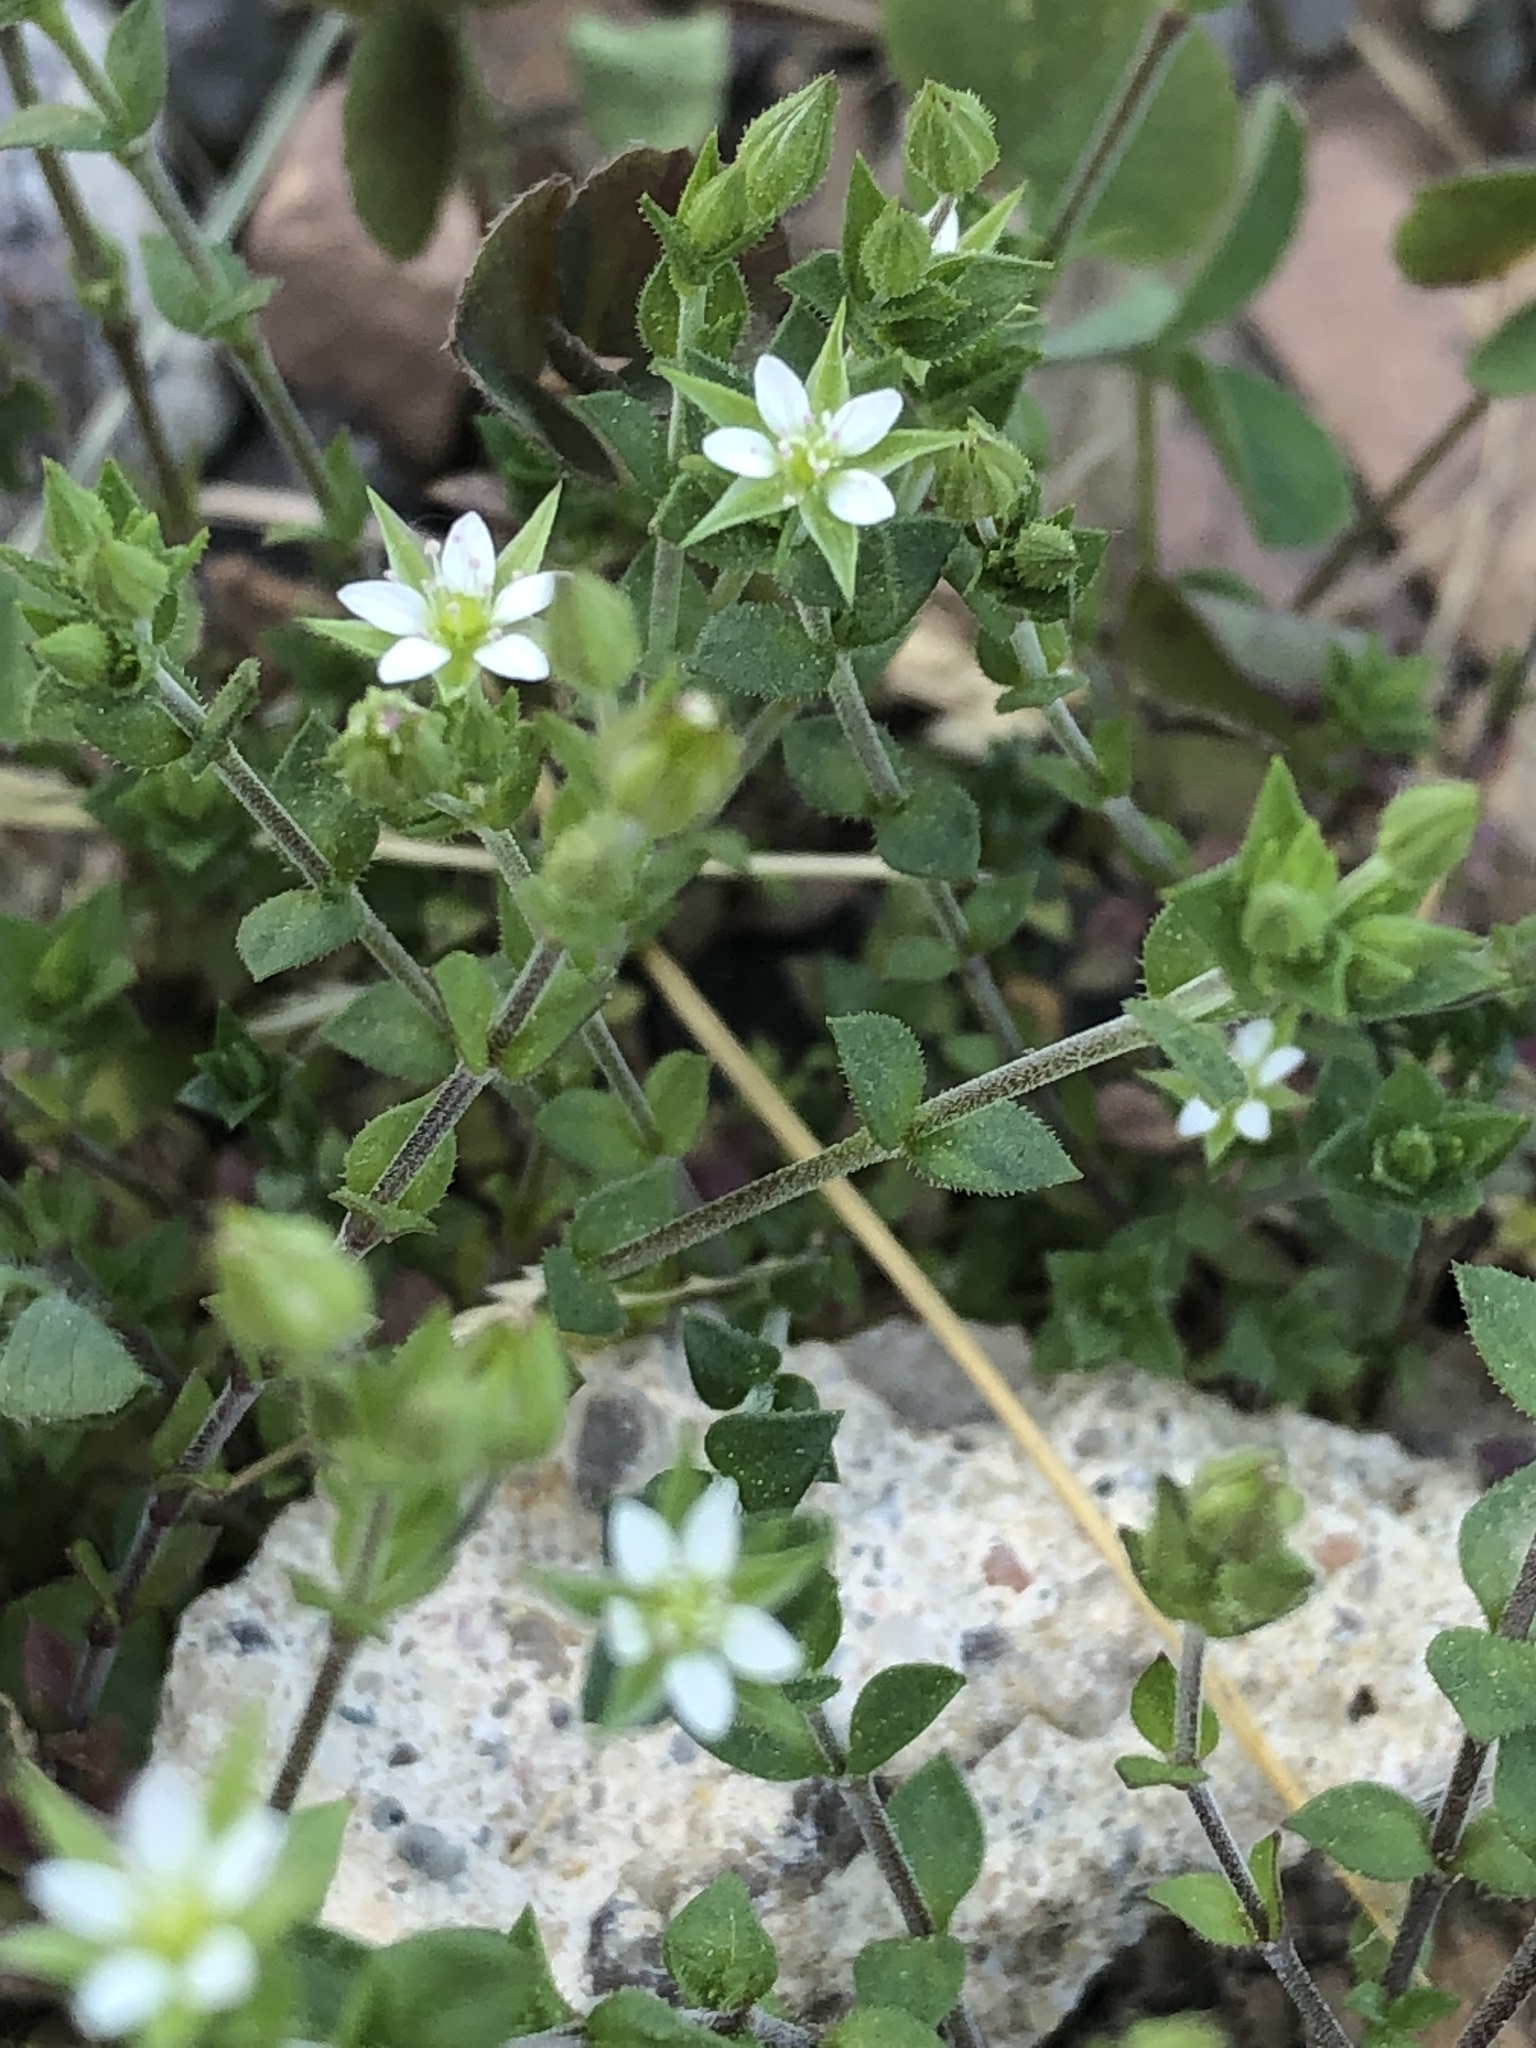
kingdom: Plantae
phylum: Tracheophyta
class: Magnoliopsida
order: Caryophyllales
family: Caryophyllaceae
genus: Arenaria
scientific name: Arenaria serpyllifolia
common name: Thyme-leaved sandwort
